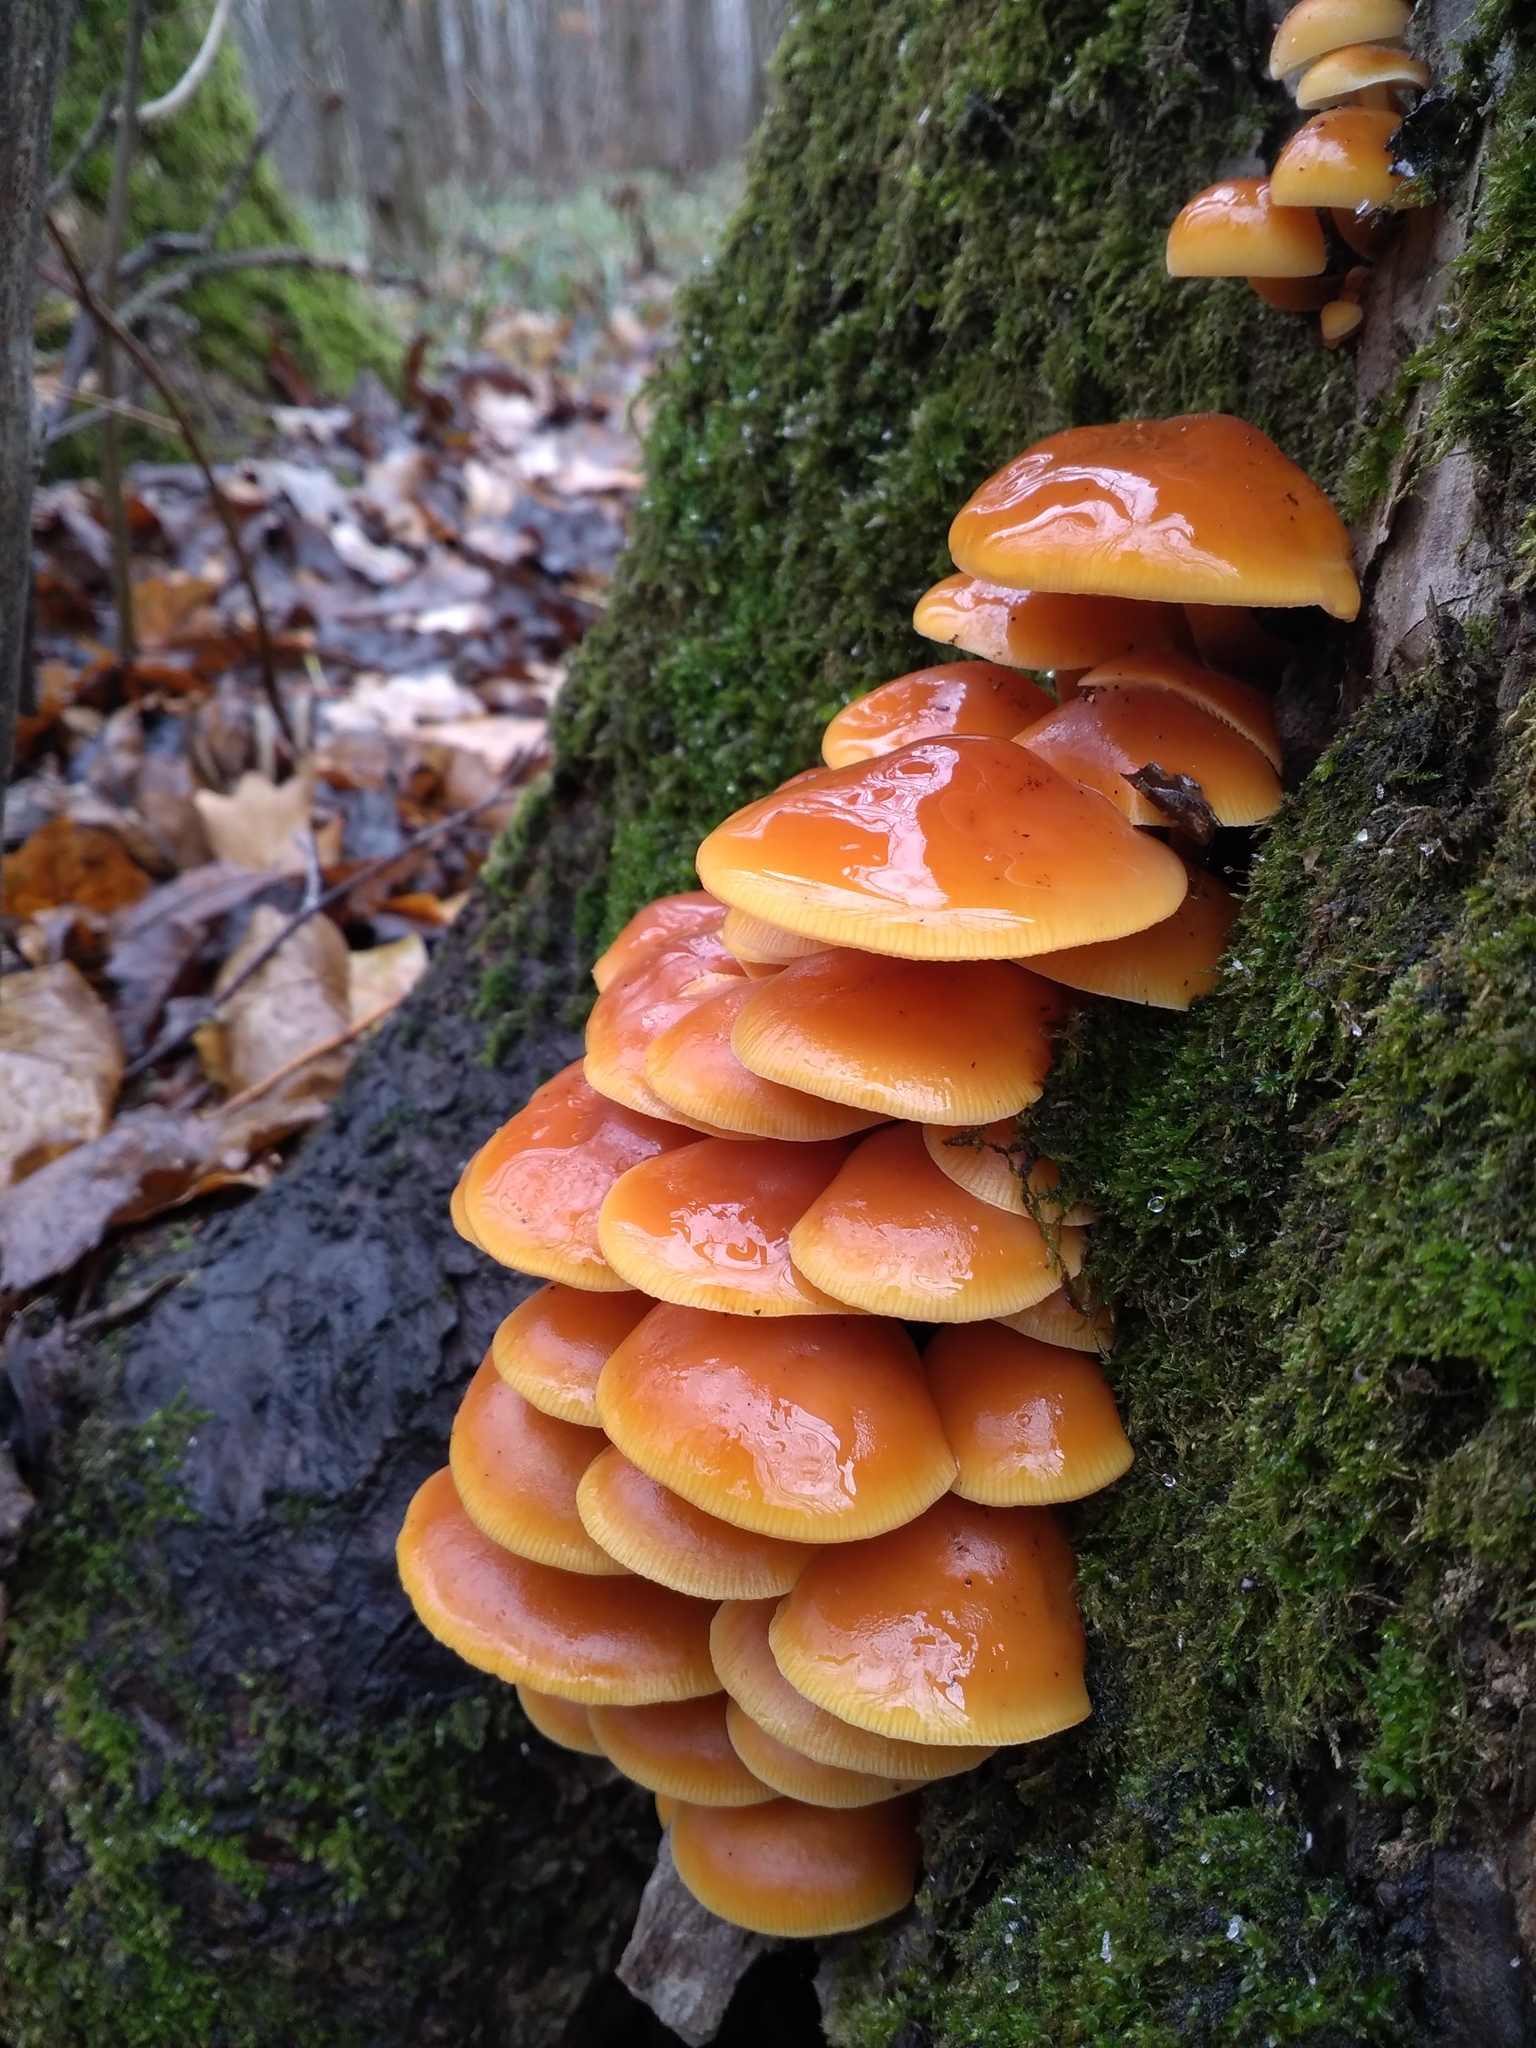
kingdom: Fungi
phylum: Basidiomycota
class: Agaricomycetes
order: Agaricales
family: Physalacriaceae
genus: Flammulina
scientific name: Flammulina
